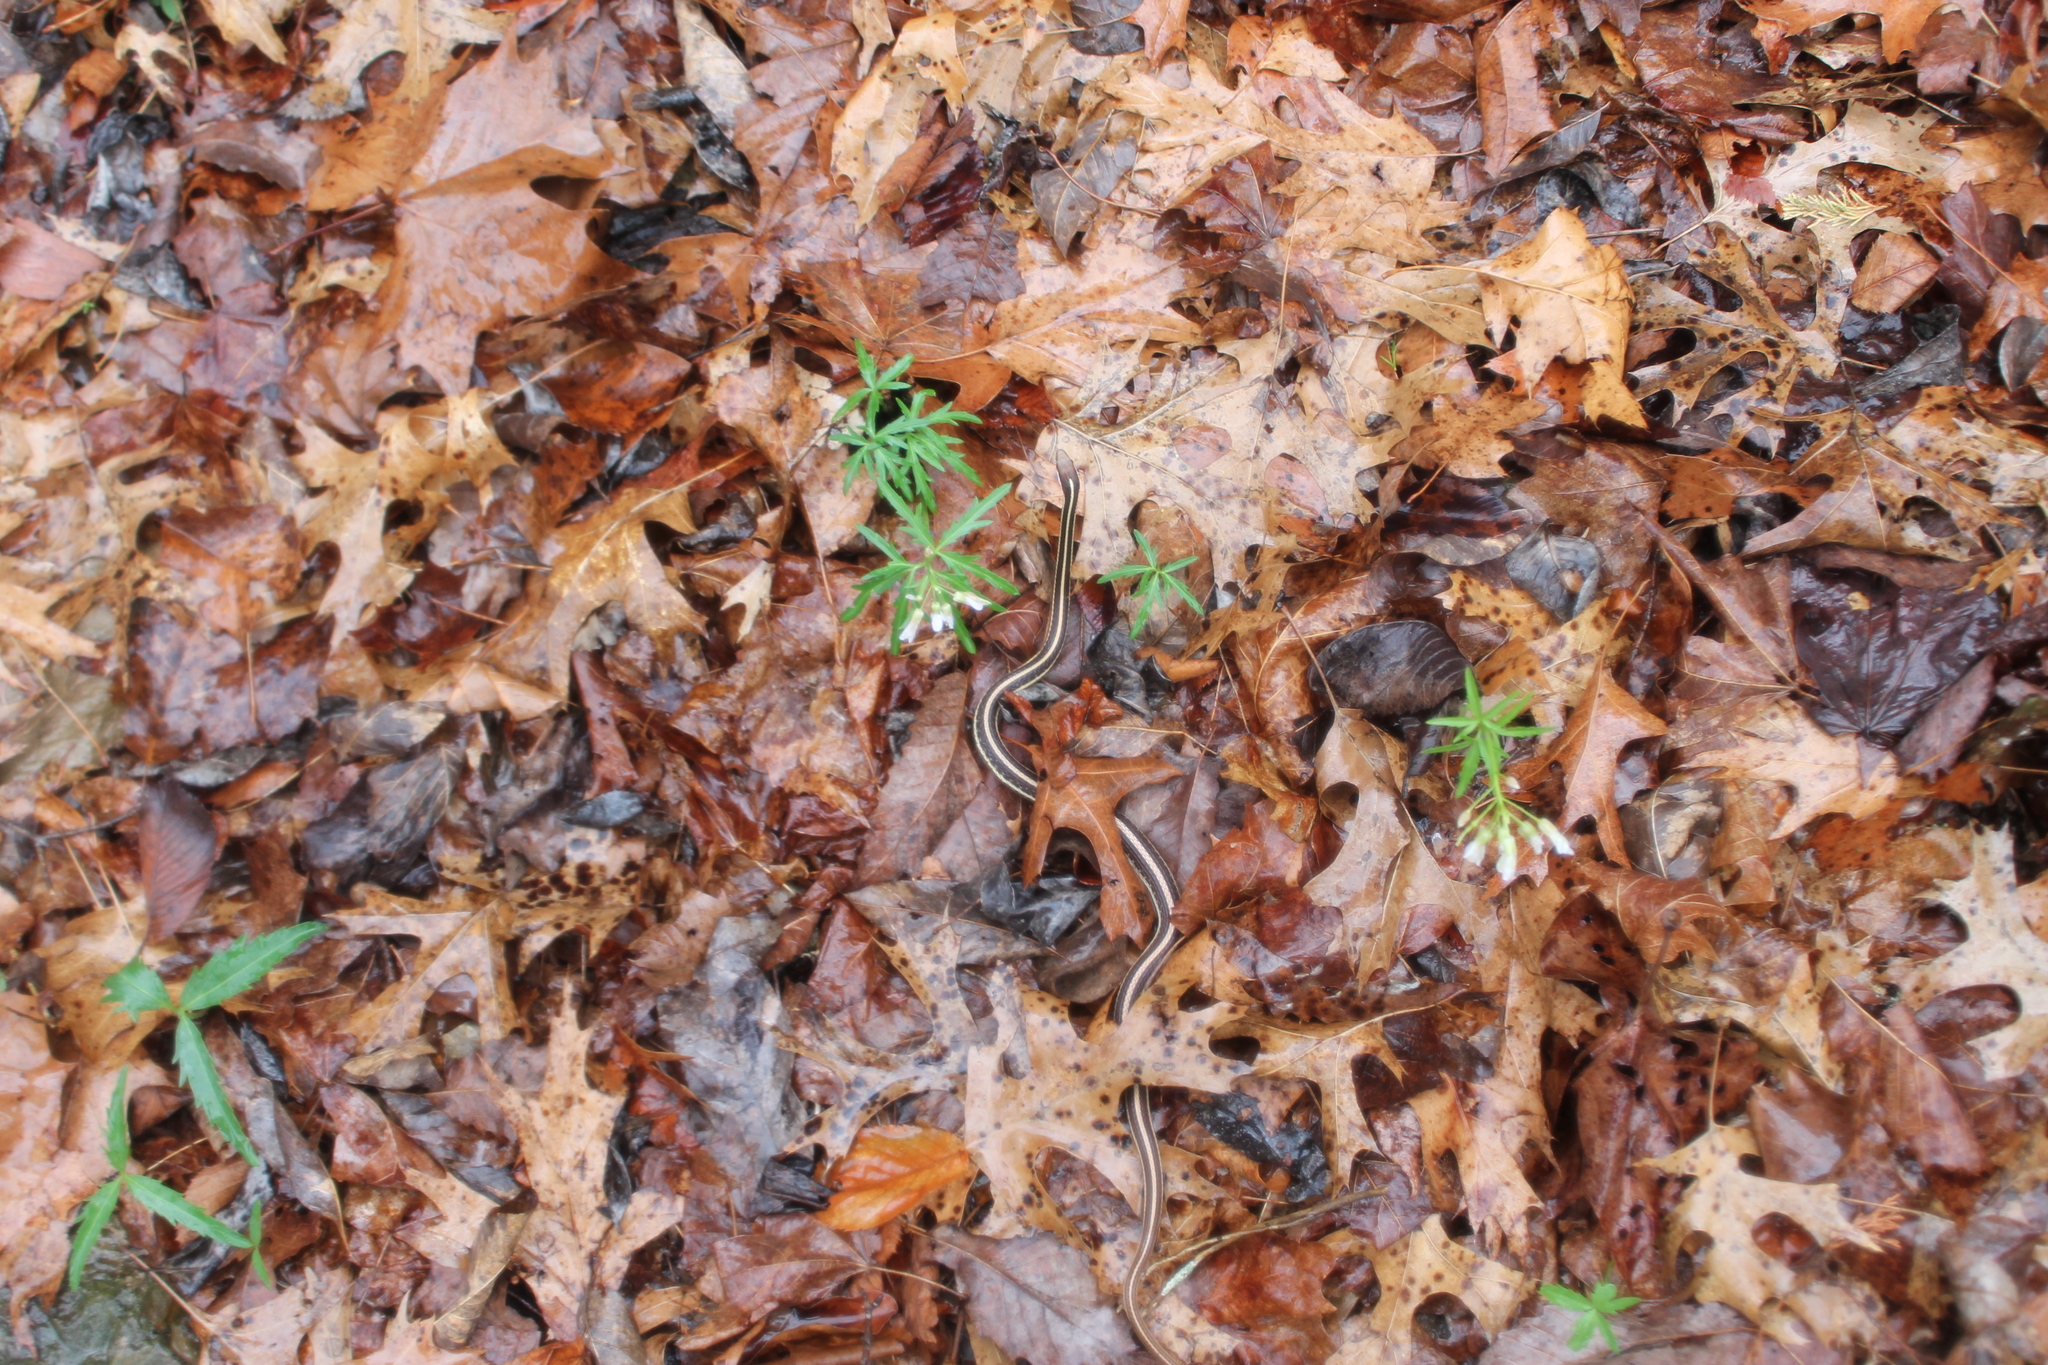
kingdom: Animalia
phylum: Chordata
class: Squamata
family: Colubridae
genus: Thamnophis
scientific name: Thamnophis saurita
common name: Eastern ribbonsnake
